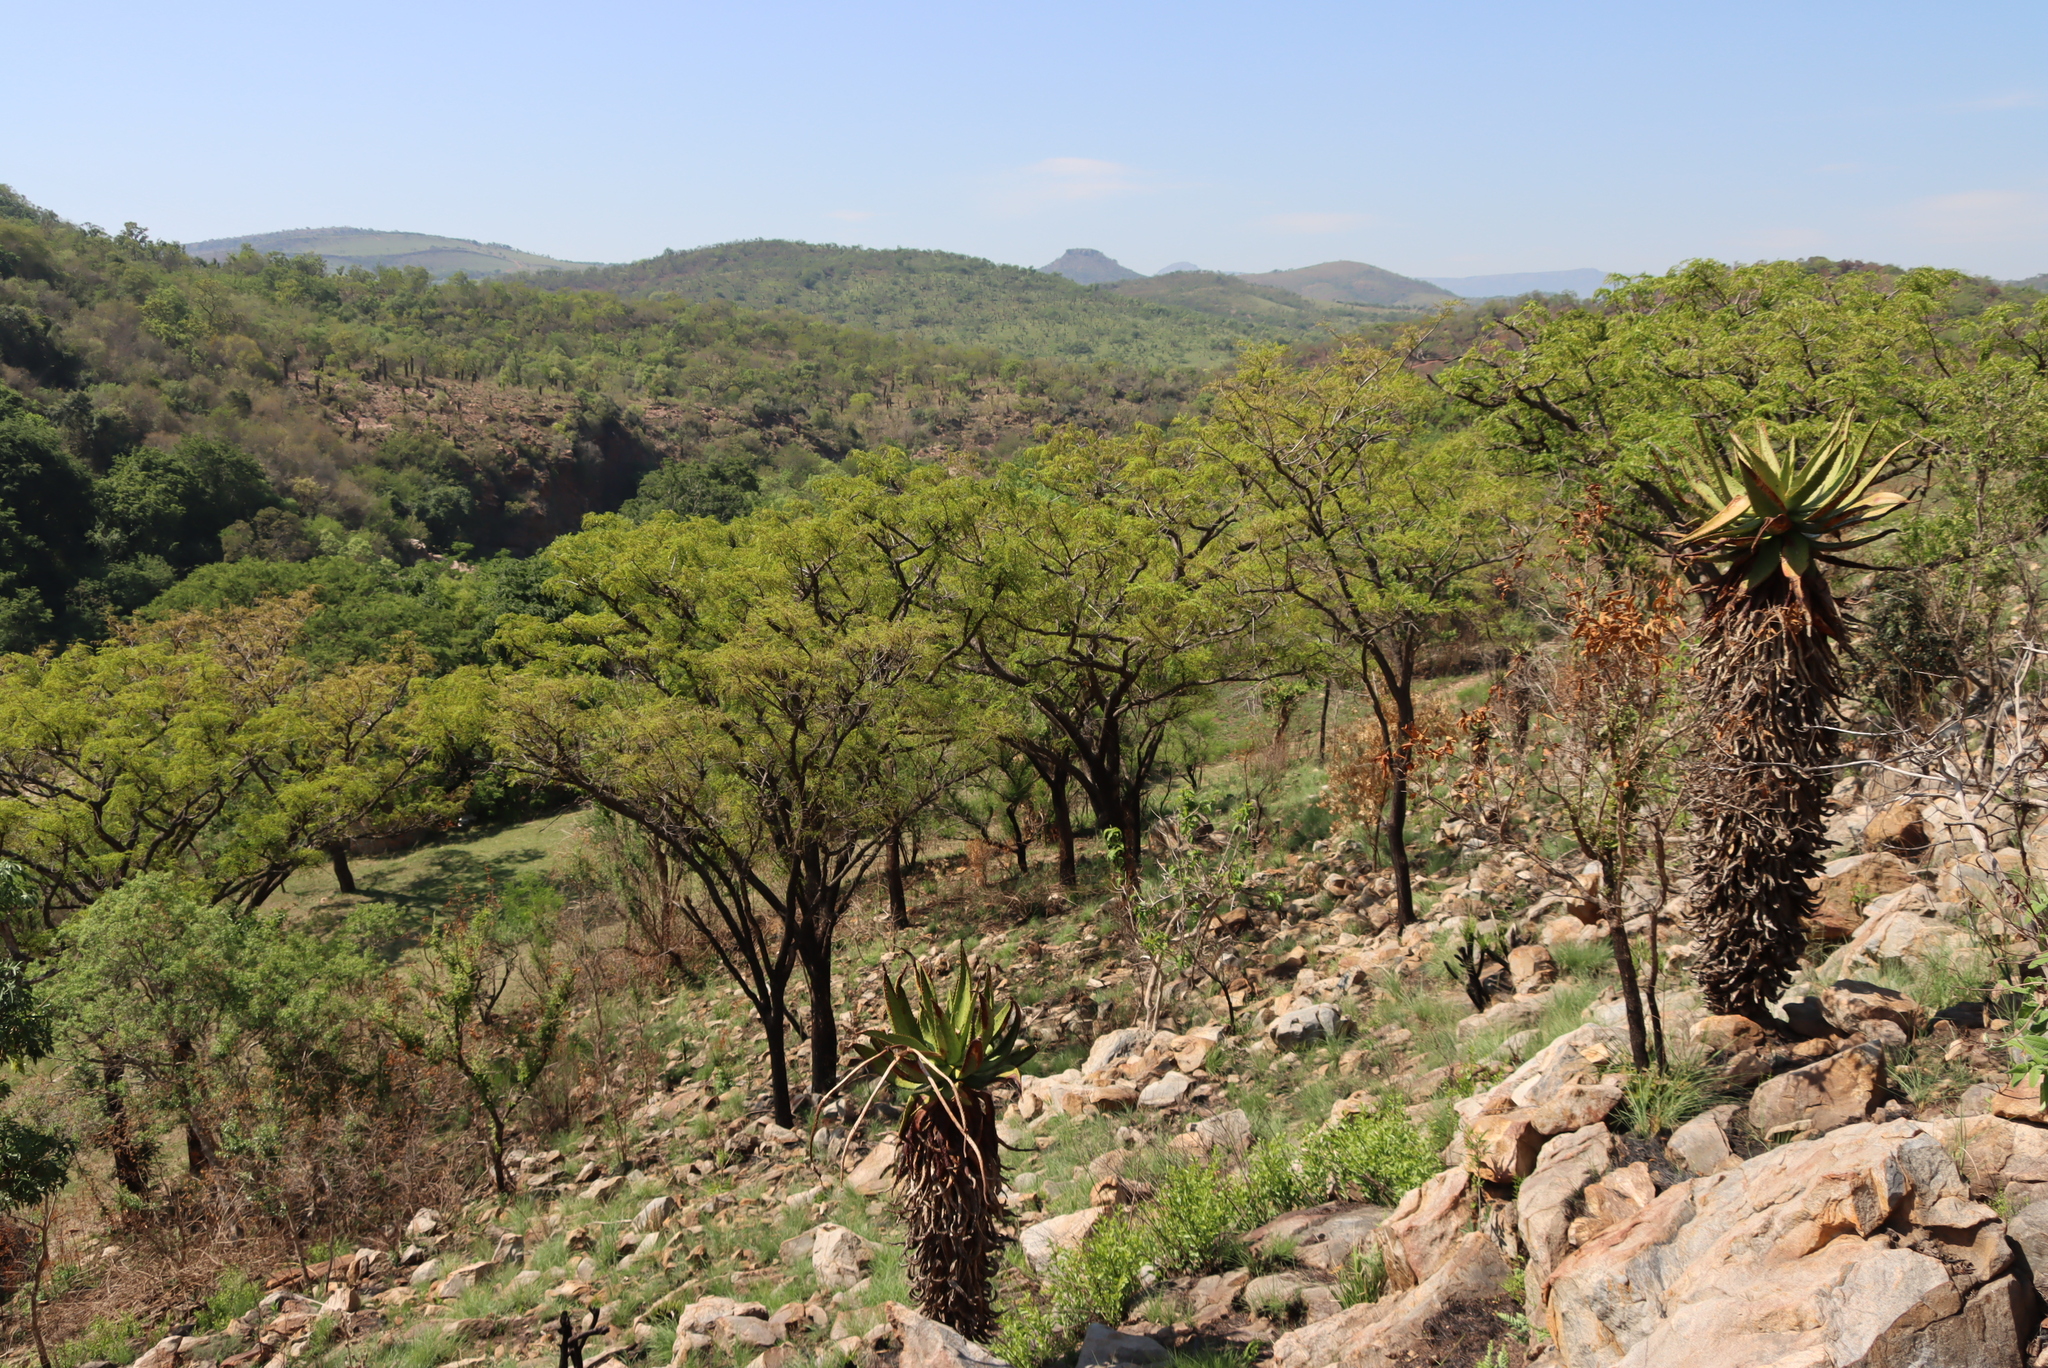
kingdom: Plantae
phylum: Tracheophyta
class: Liliopsida
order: Asparagales
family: Asphodelaceae
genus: Aloe
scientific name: Aloe marlothii
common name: Flat-flowered aloe
